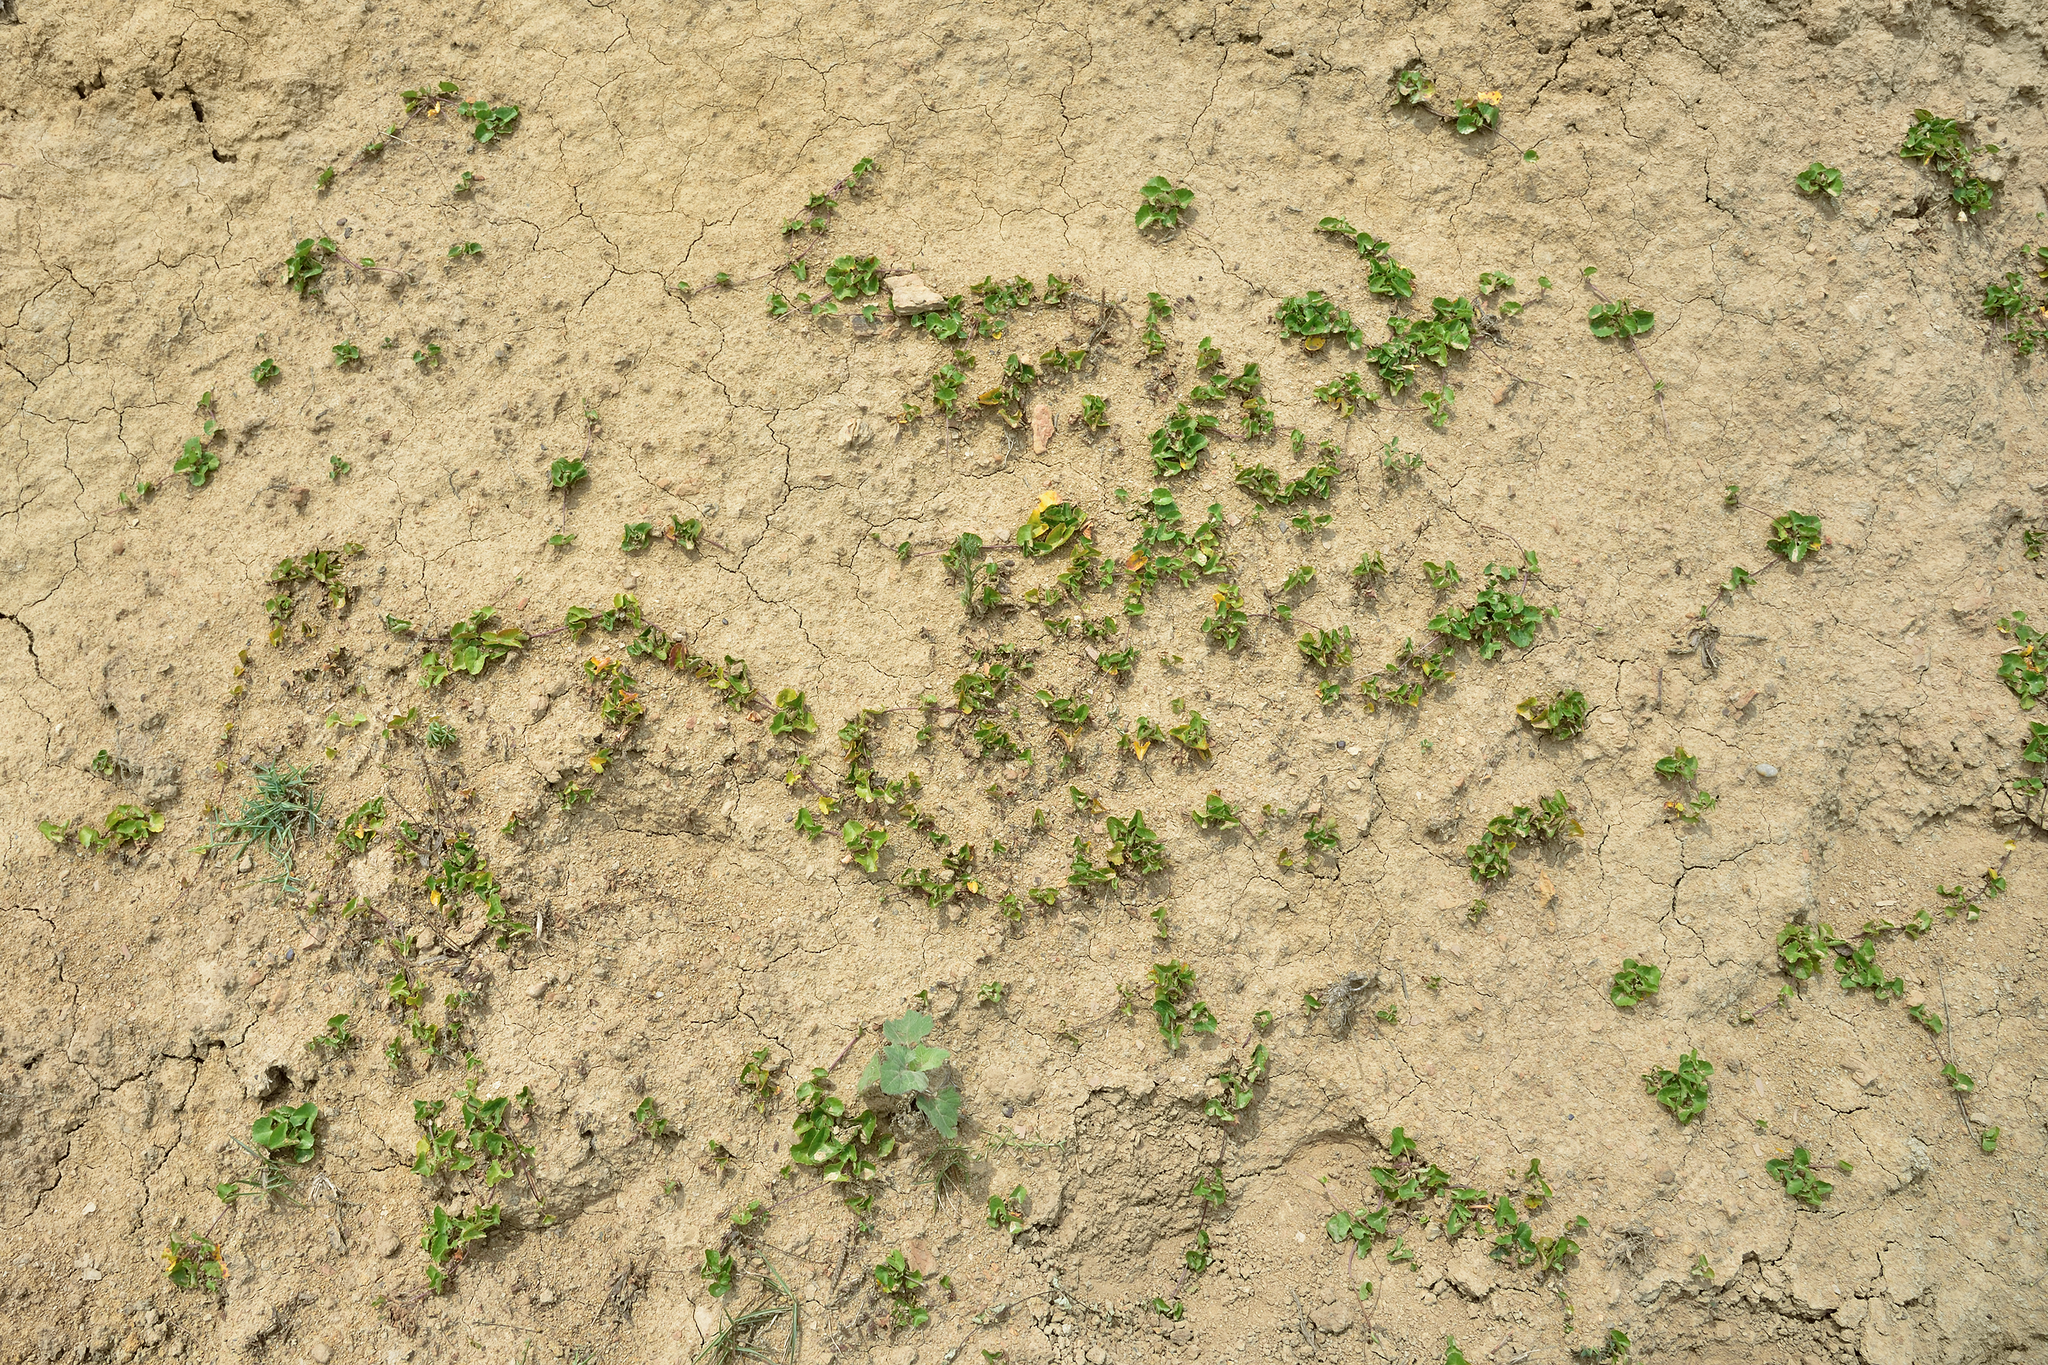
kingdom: Plantae
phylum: Tracheophyta
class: Magnoliopsida
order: Apiales
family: Apiaceae
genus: Centella
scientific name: Centella asiatica
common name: Spadeleaf
